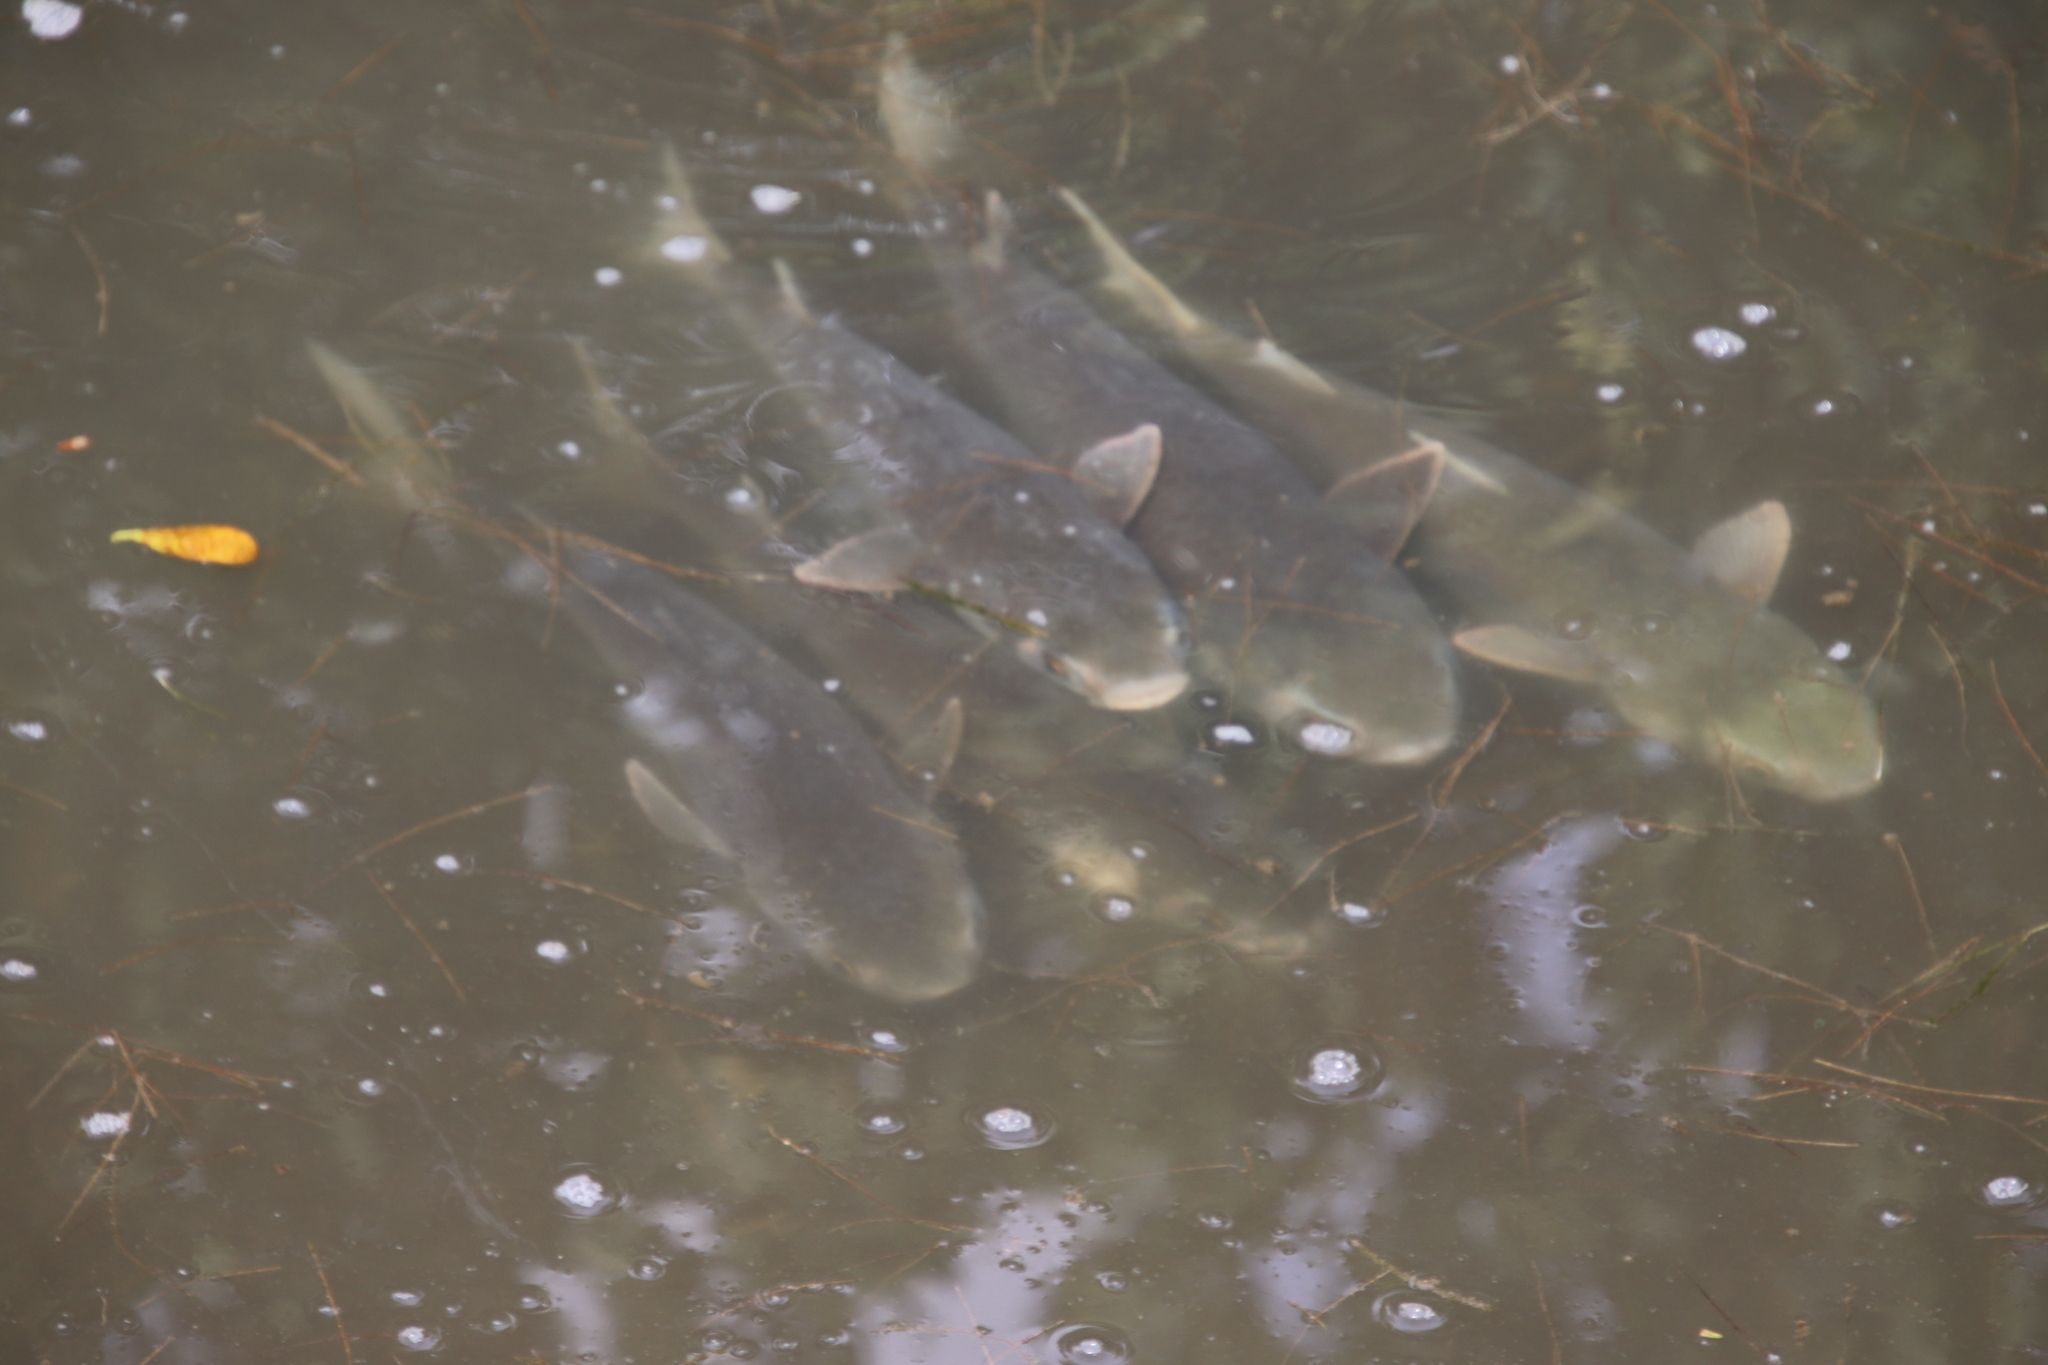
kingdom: Animalia
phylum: Chordata
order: Mugiliformes
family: Mugilidae
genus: Mugil
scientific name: Mugil
